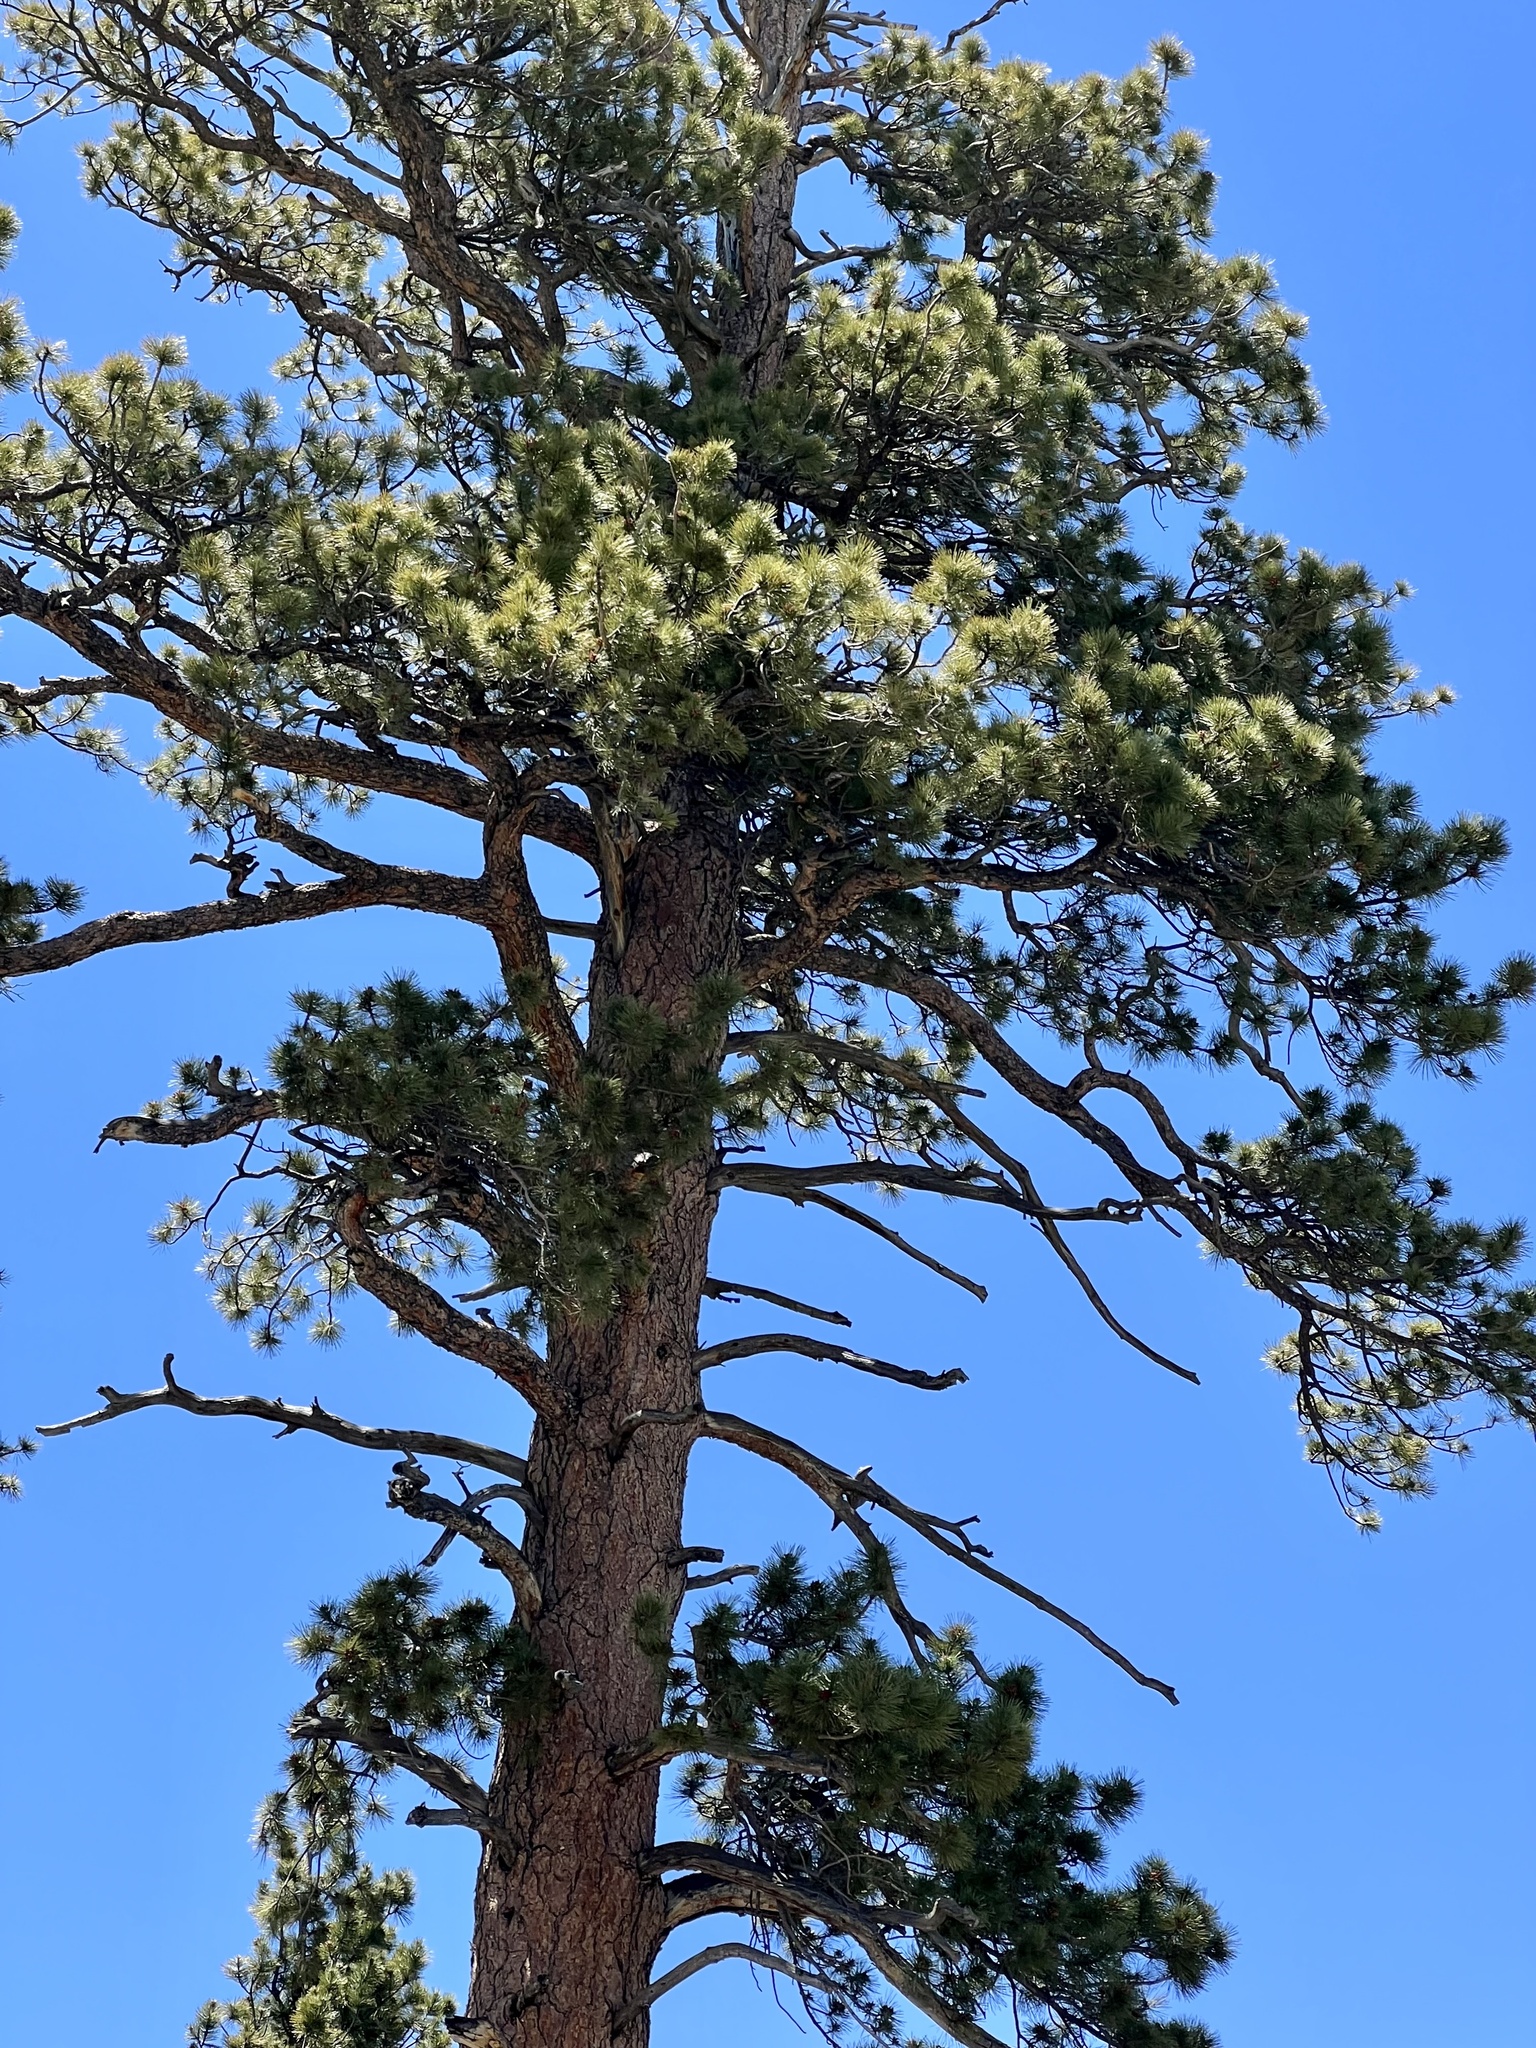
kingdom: Plantae
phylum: Tracheophyta
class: Pinopsida
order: Pinales
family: Pinaceae
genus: Pinus
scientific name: Pinus ponderosa
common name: Western yellow-pine
